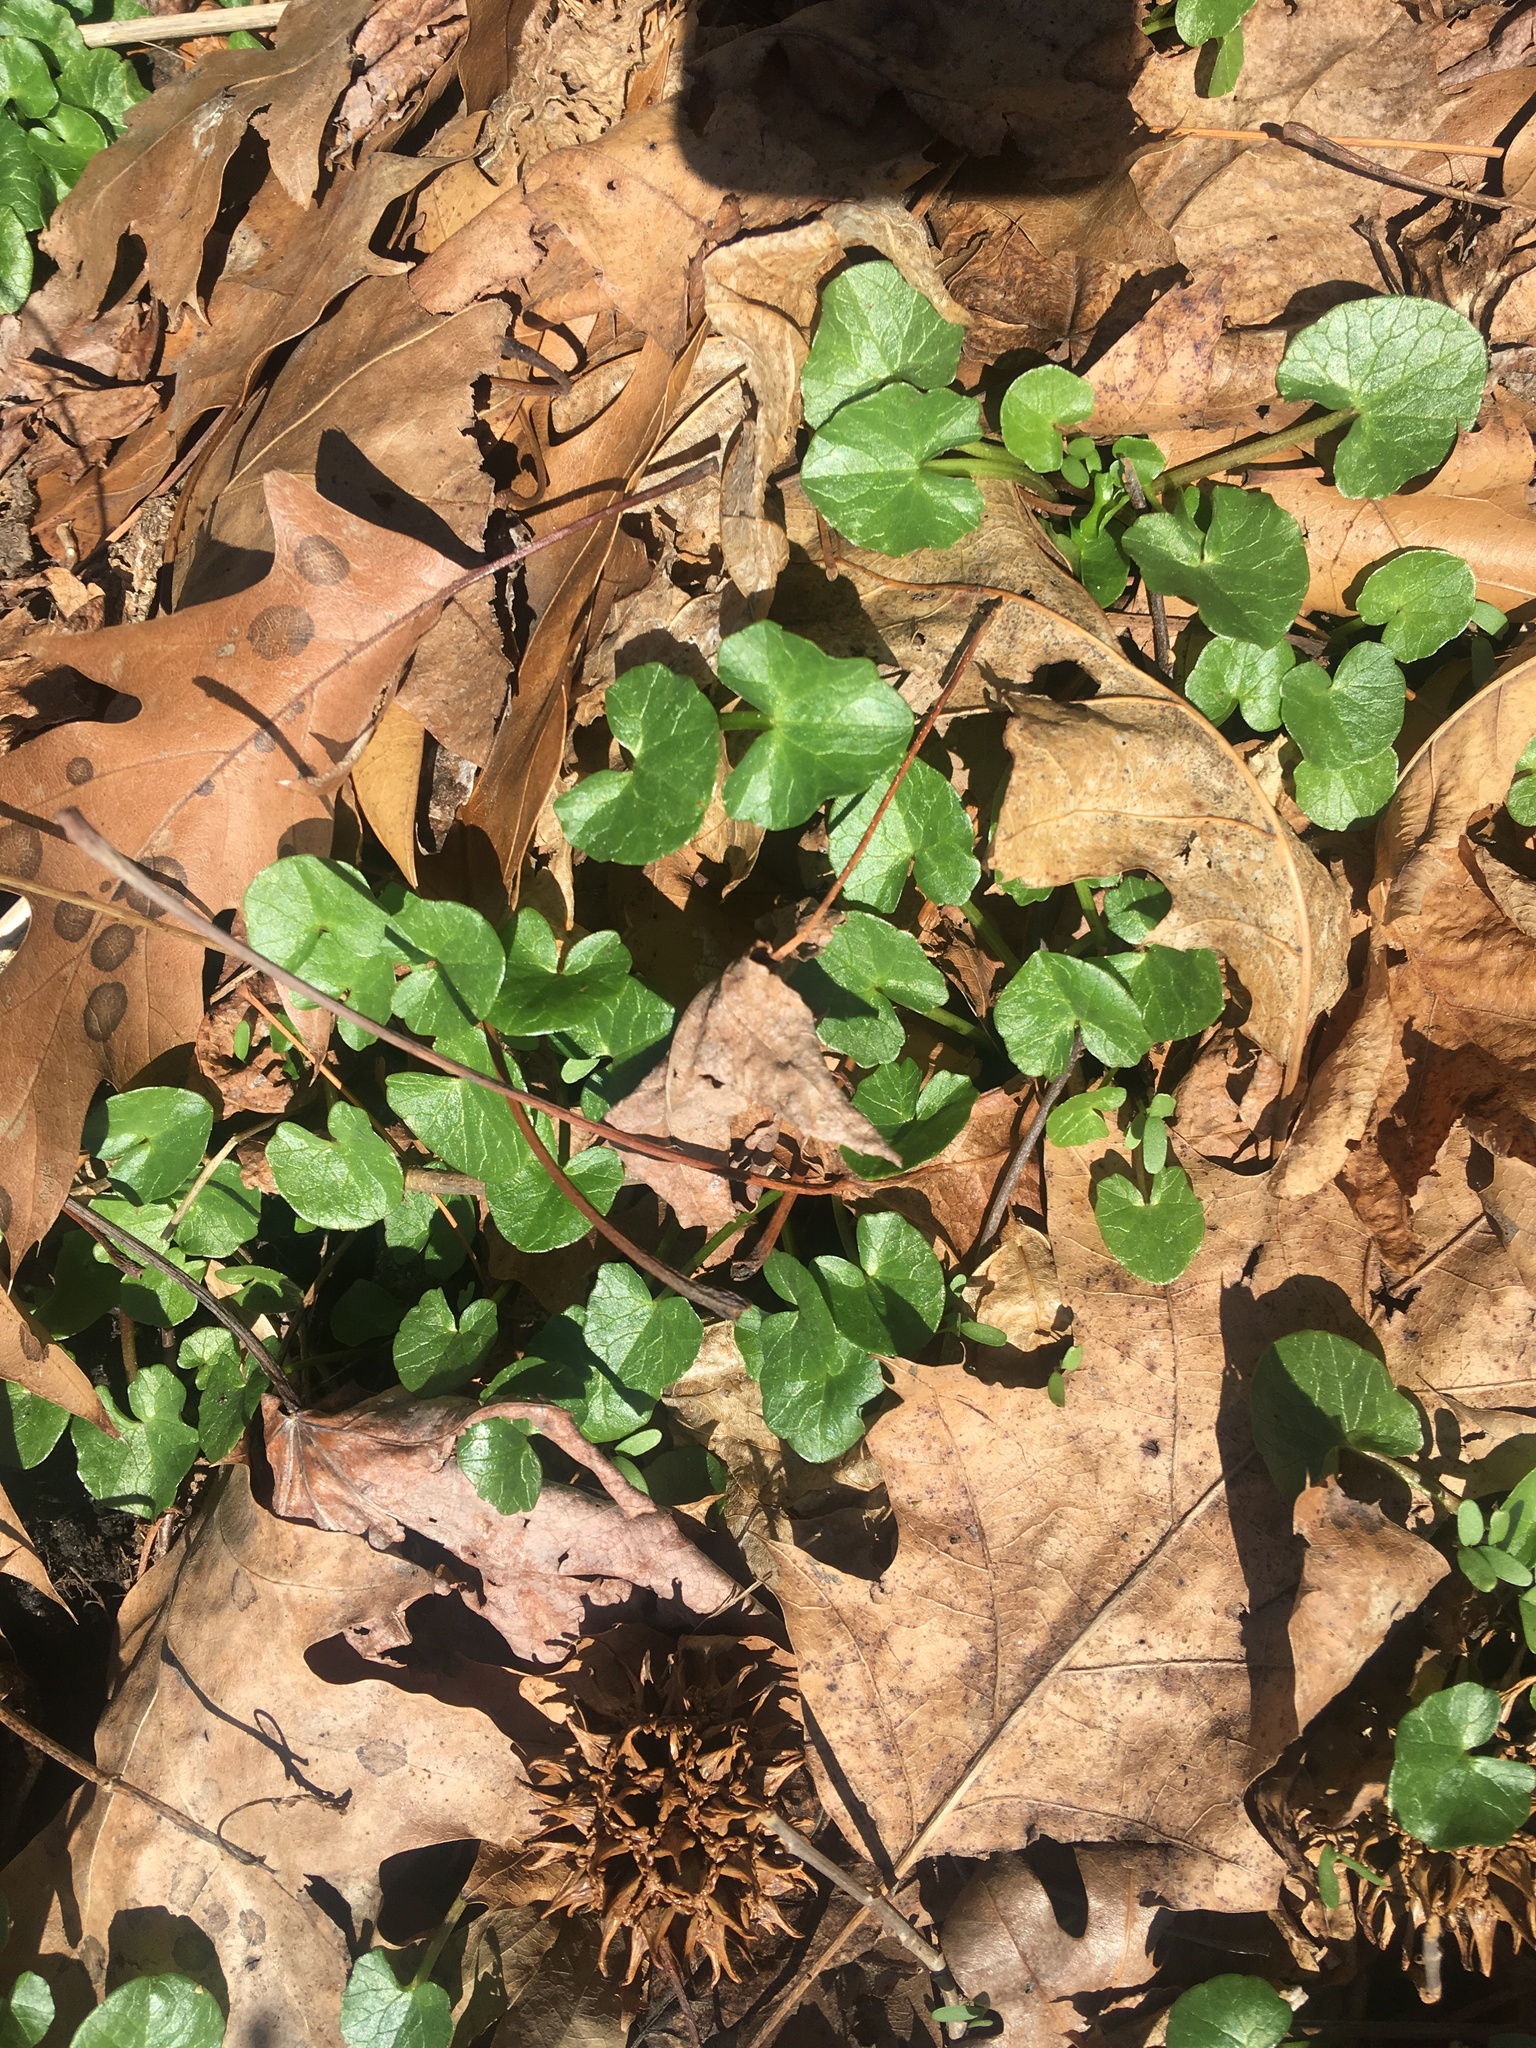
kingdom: Plantae
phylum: Tracheophyta
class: Magnoliopsida
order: Ranunculales
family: Ranunculaceae
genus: Ficaria
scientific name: Ficaria verna
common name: Lesser celandine
